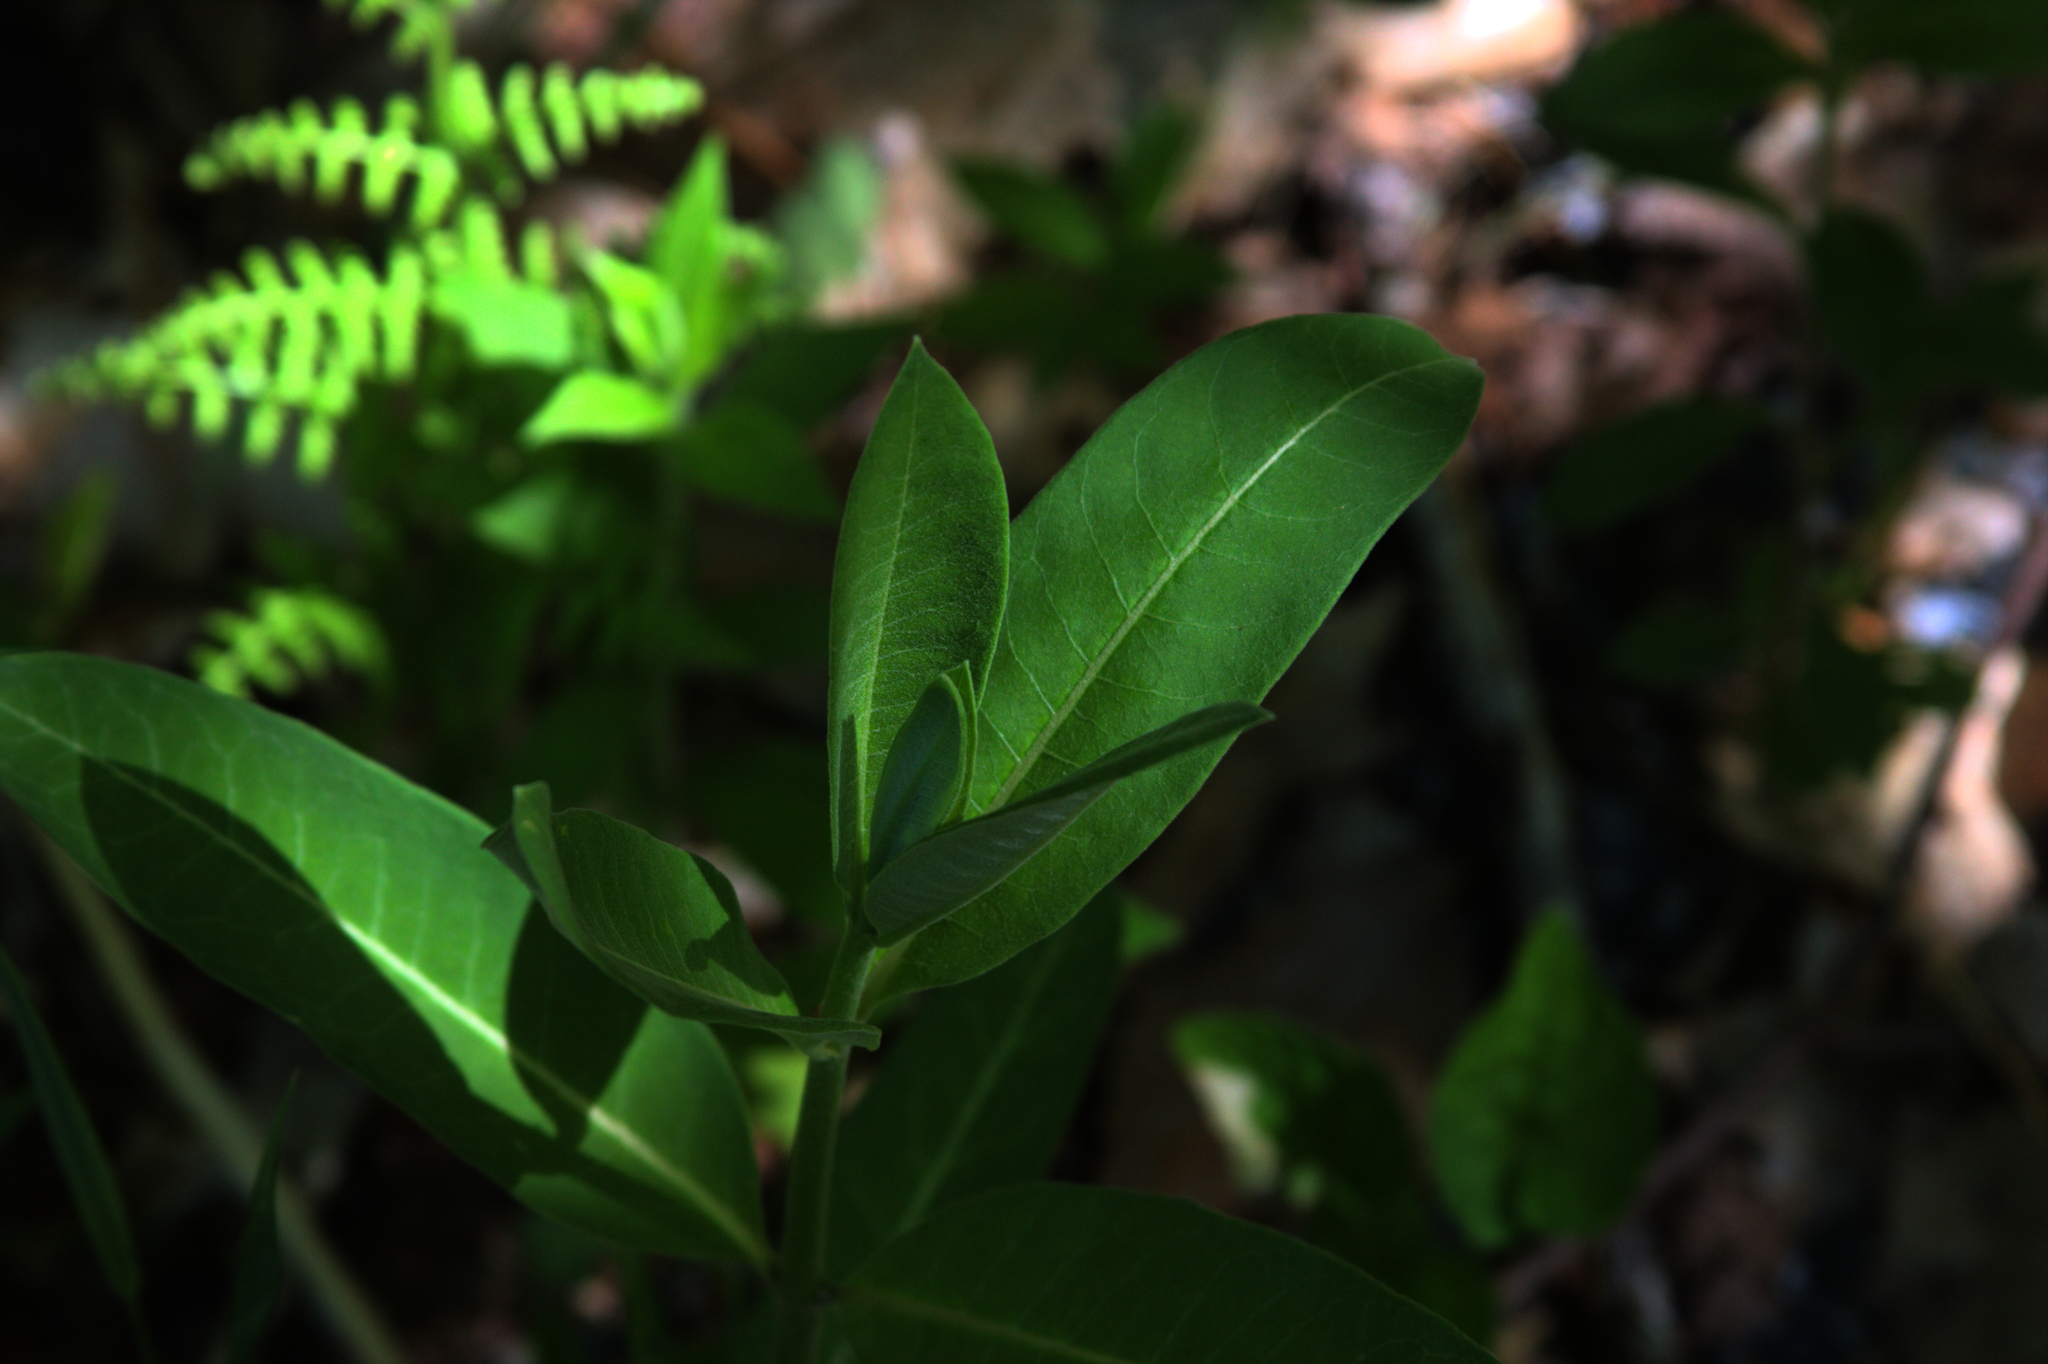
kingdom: Plantae
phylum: Tracheophyta
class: Magnoliopsida
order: Gentianales
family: Apocynaceae
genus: Asclepias
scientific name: Asclepias syriaca
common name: Common milkweed
